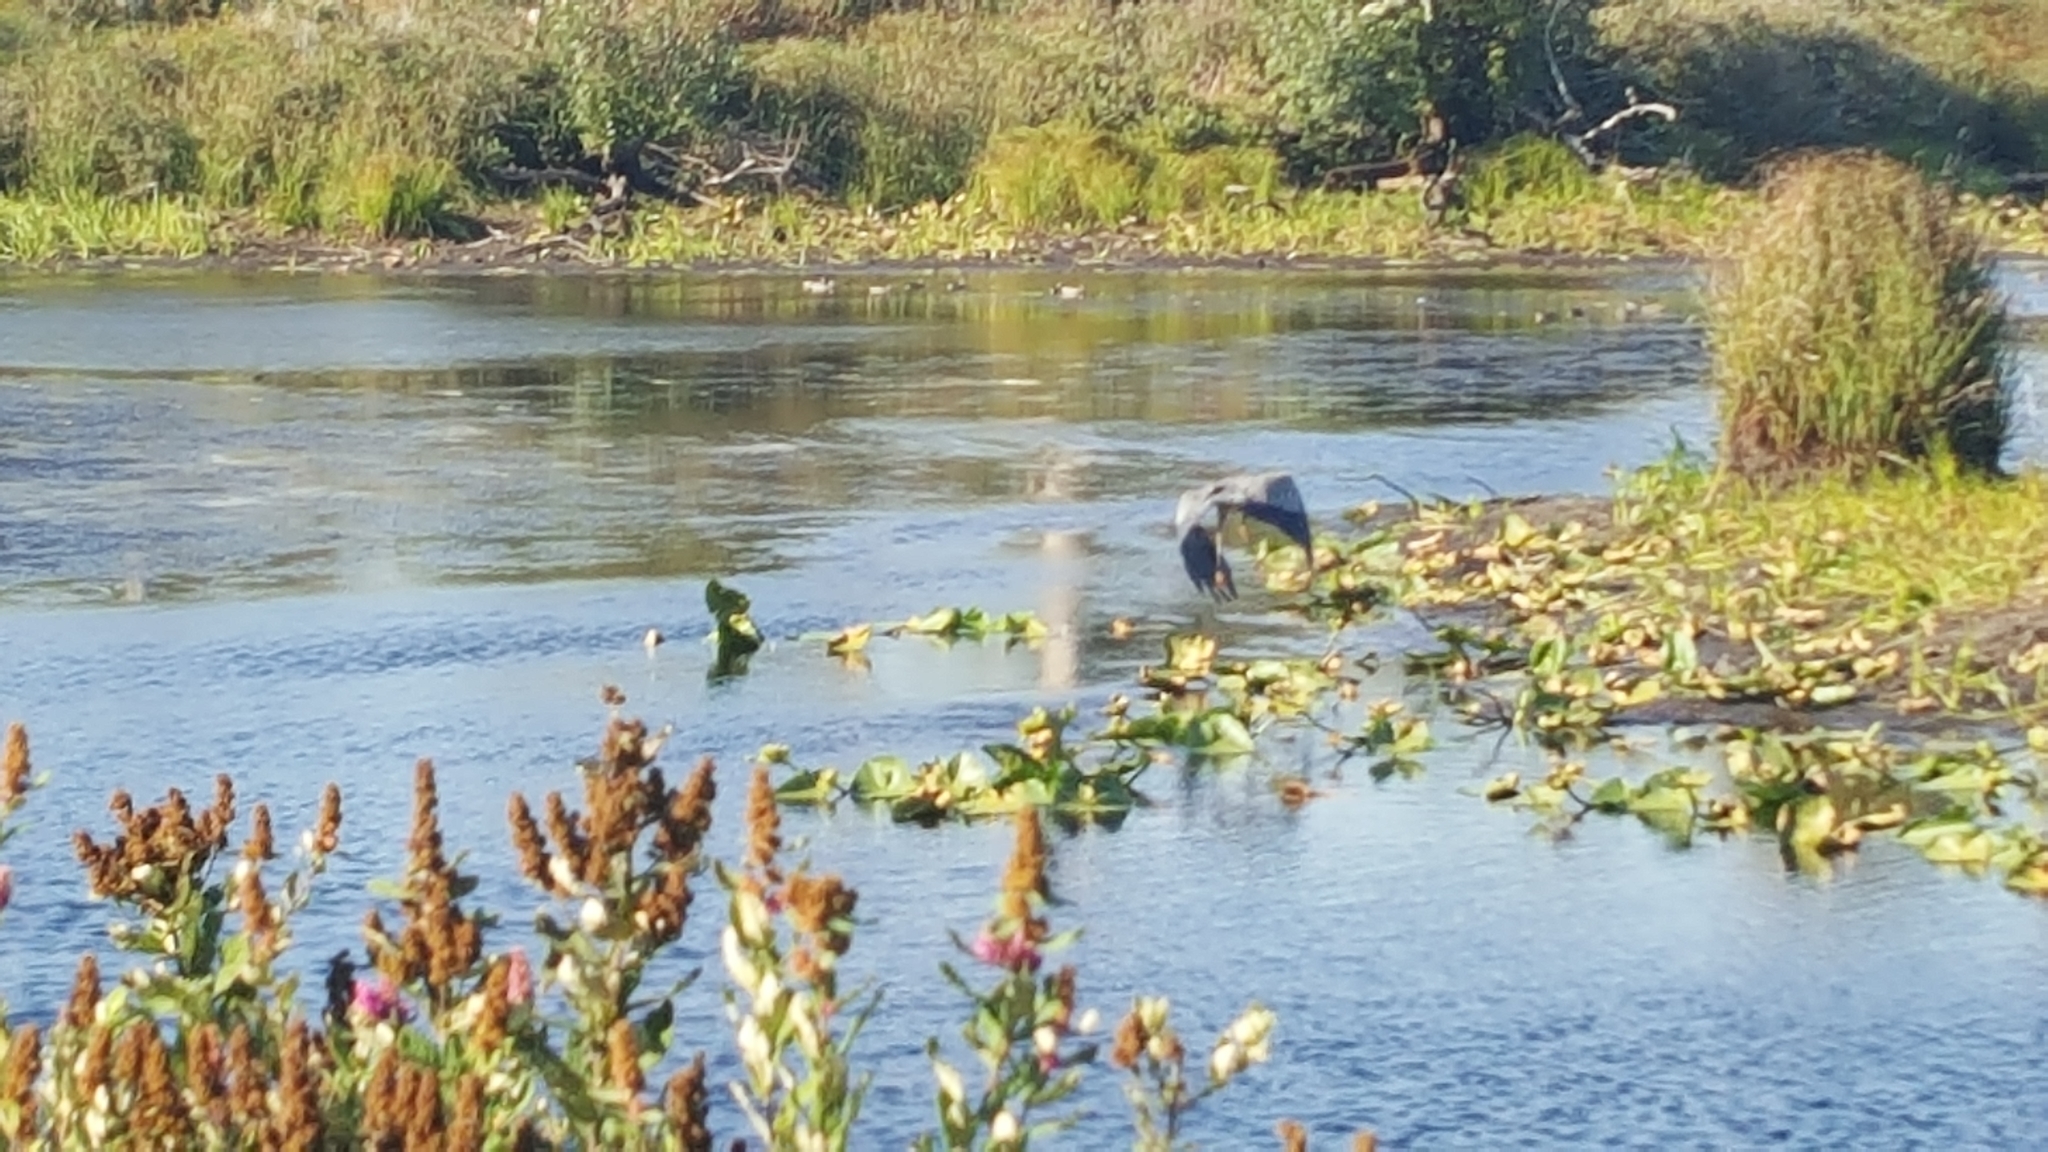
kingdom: Animalia
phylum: Chordata
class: Aves
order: Pelecaniformes
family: Ardeidae
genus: Ardea
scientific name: Ardea herodias
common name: Great blue heron
